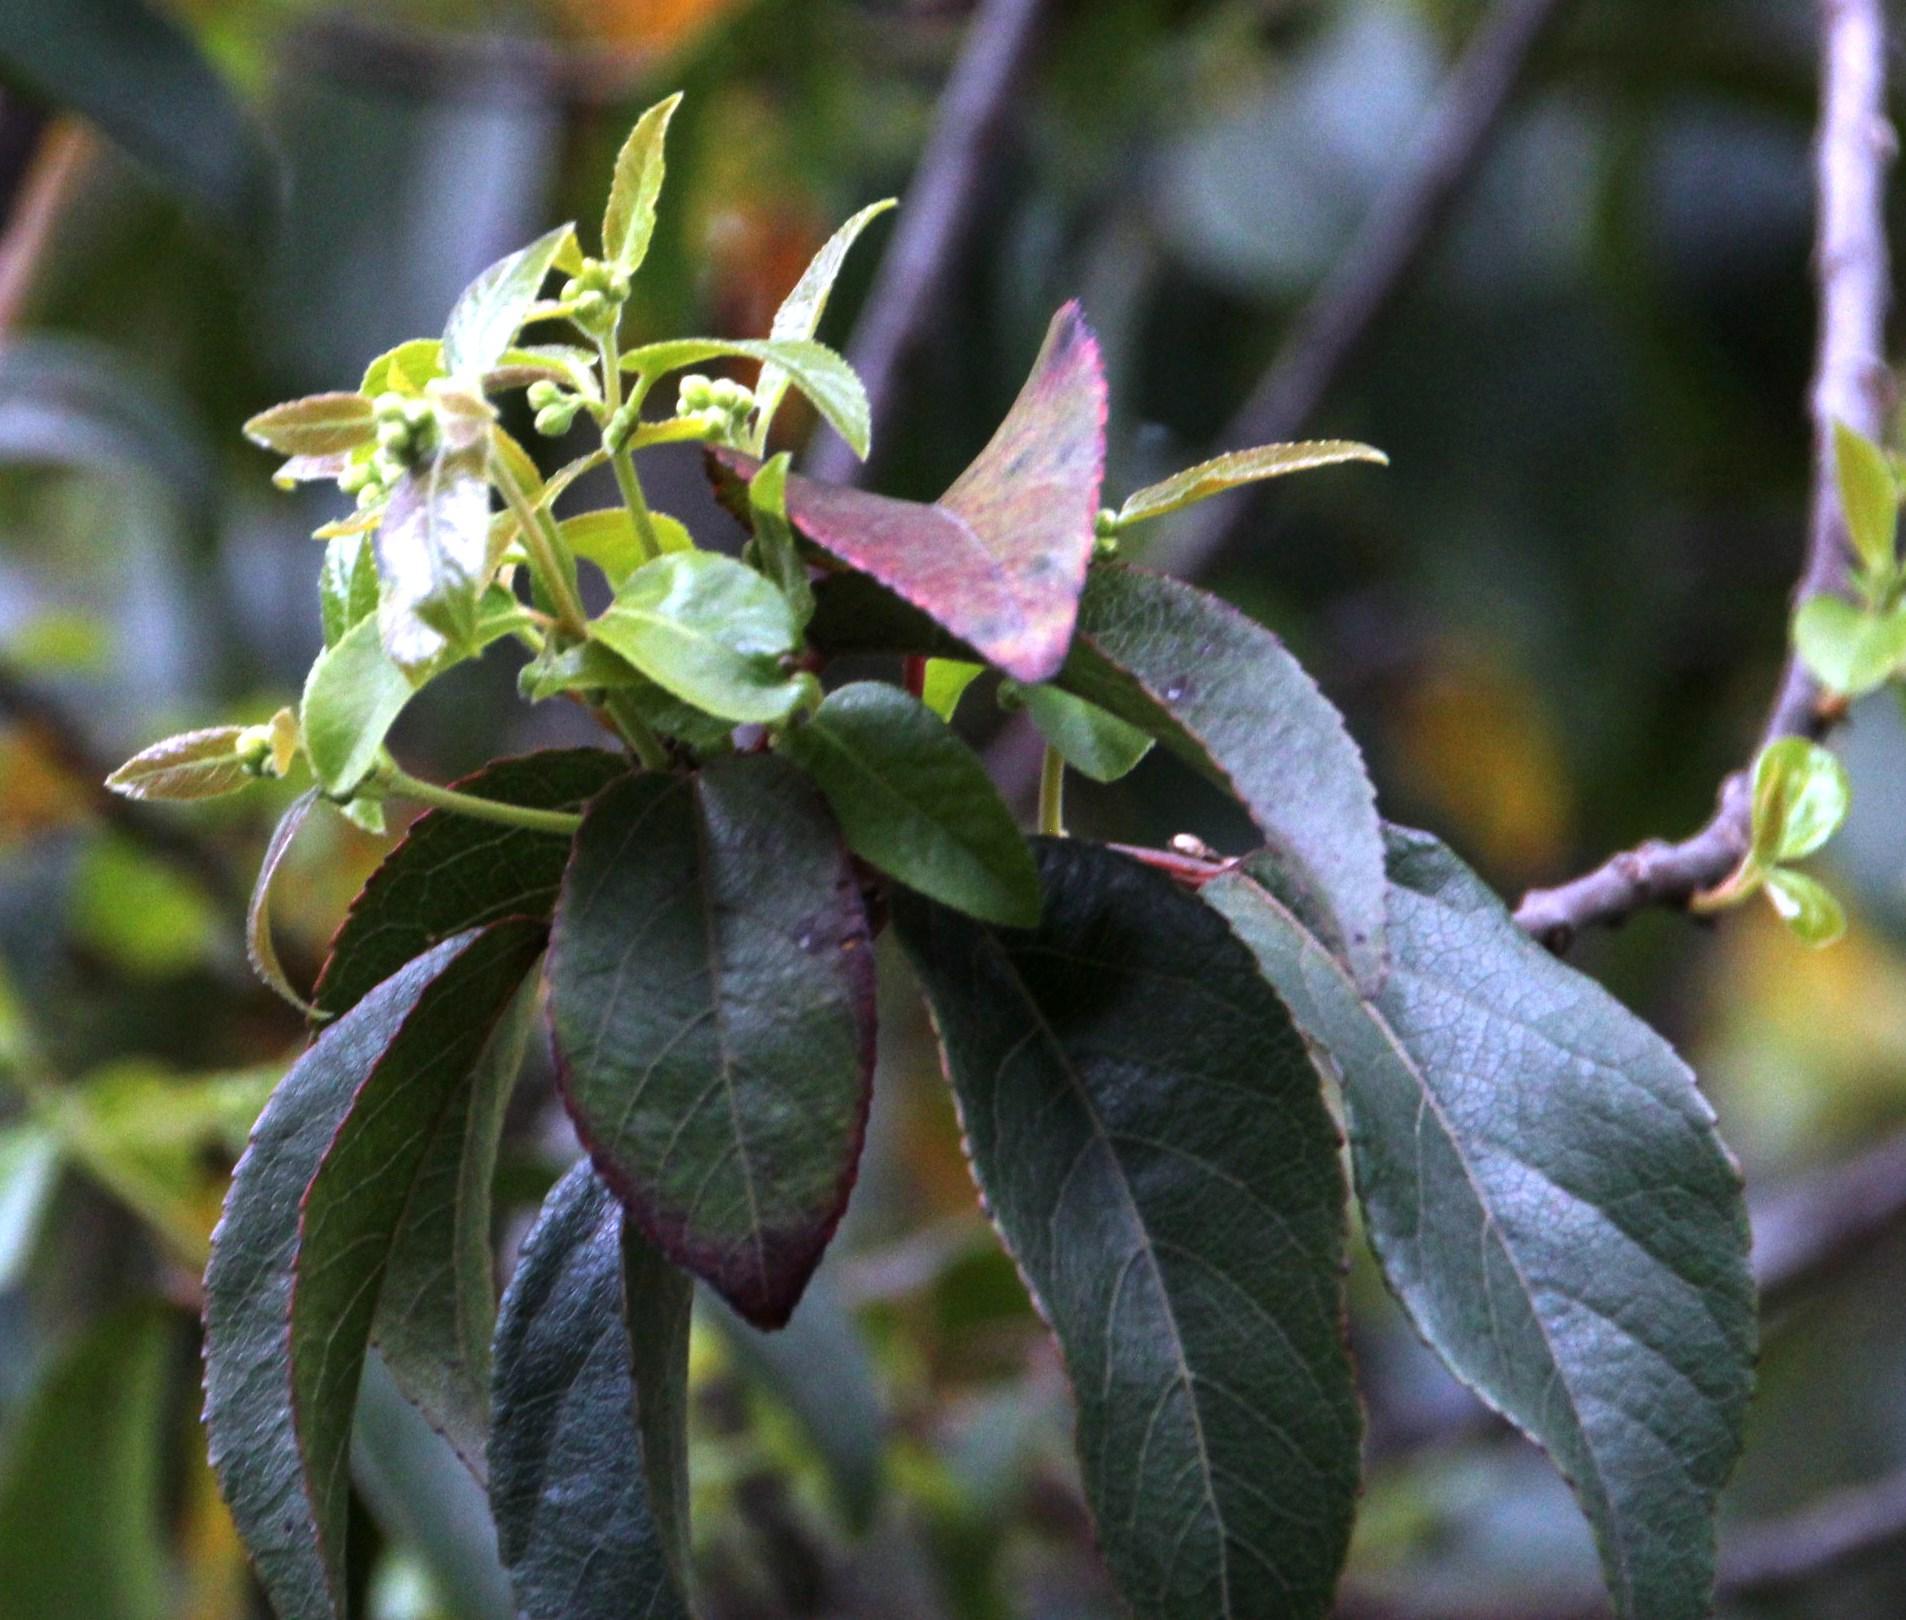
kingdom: Plantae
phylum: Tracheophyta
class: Magnoliopsida
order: Oxalidales
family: Elaeocarpaceae
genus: Aristotelia
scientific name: Aristotelia chilensis
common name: Maquei
